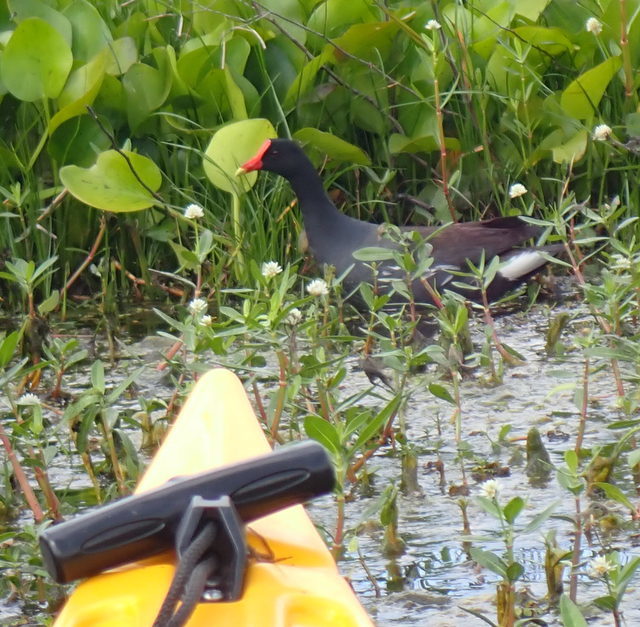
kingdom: Animalia
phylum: Chordata
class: Aves
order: Gruiformes
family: Rallidae
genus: Gallinula
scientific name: Gallinula chloropus
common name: Common moorhen
